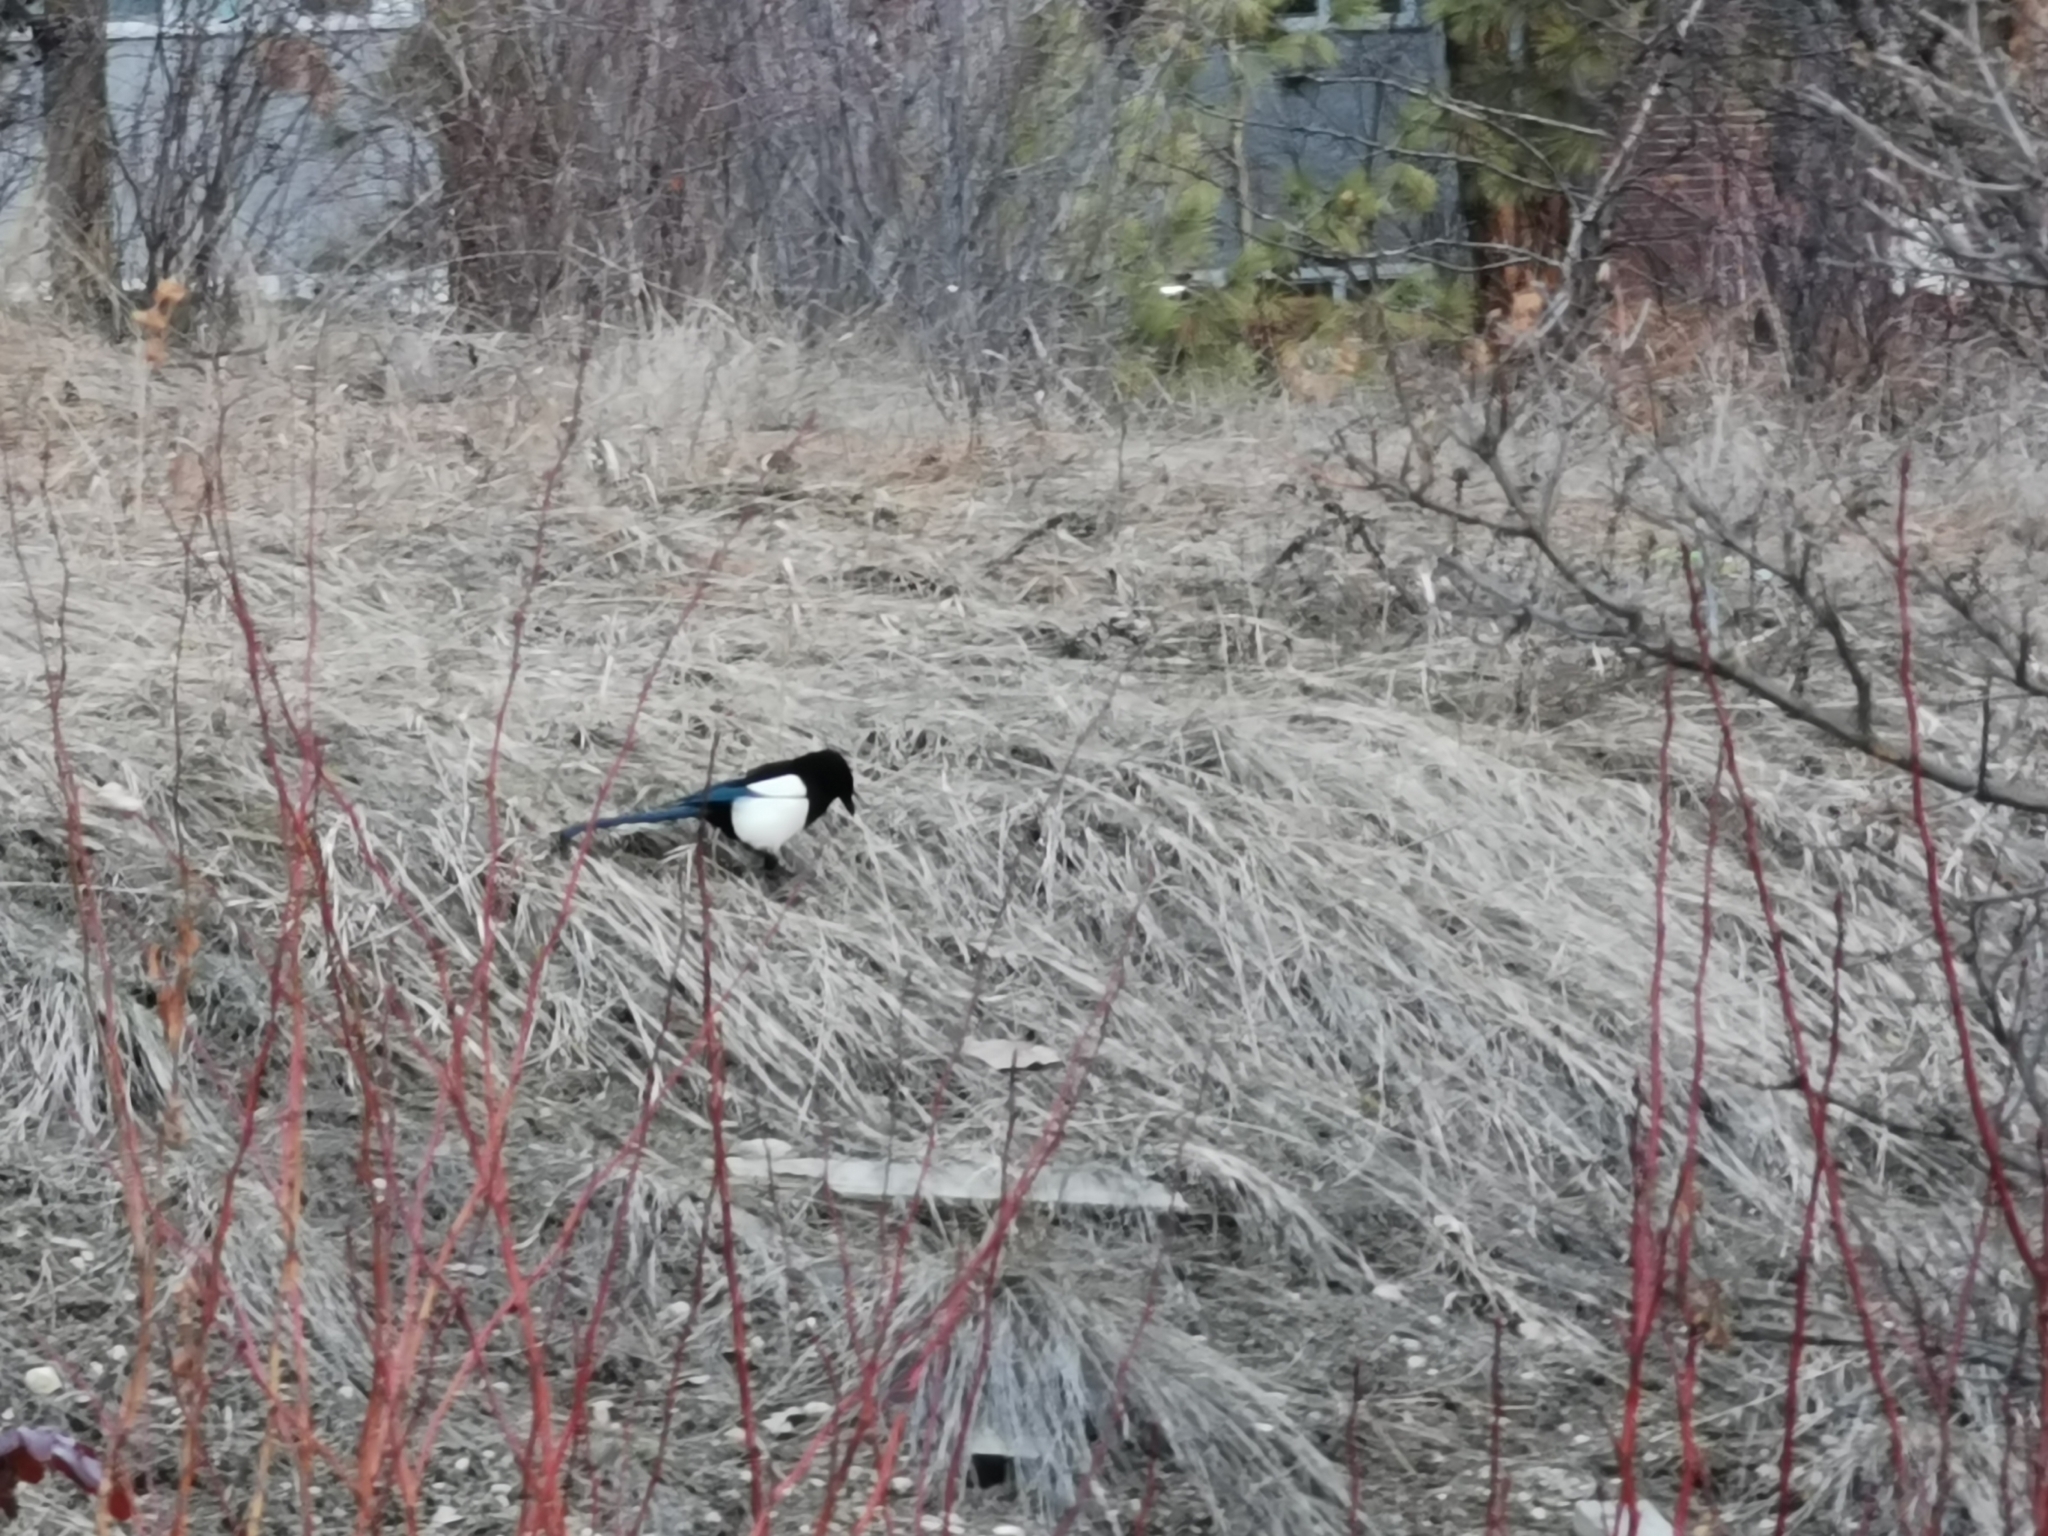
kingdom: Animalia
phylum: Chordata
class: Aves
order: Passeriformes
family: Corvidae
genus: Pica
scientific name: Pica hudsonia
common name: Black-billed magpie
